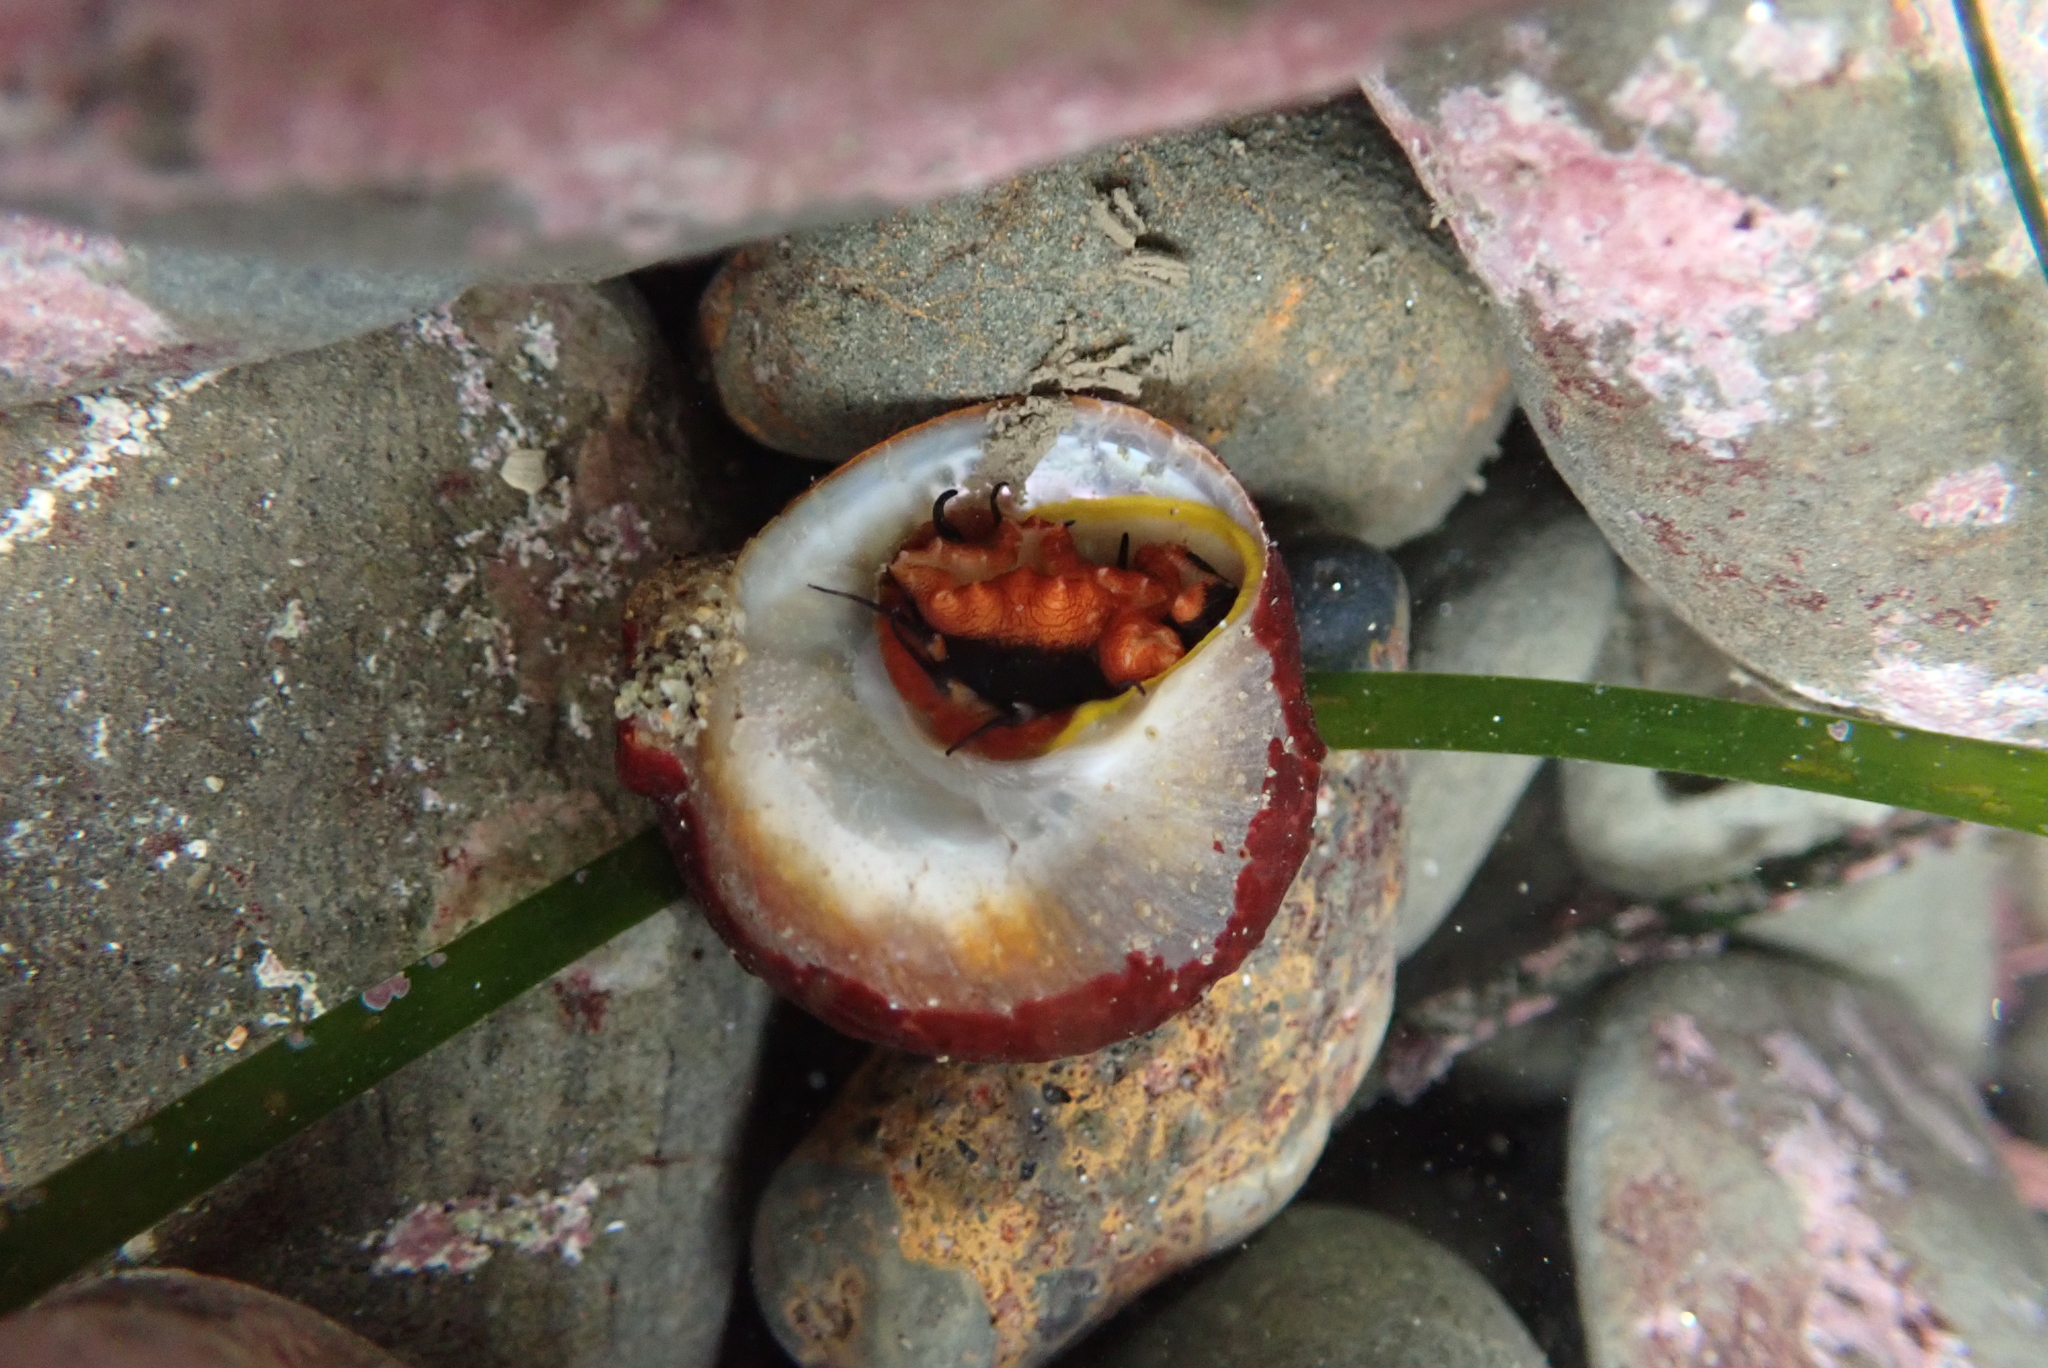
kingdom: Animalia
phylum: Mollusca
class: Gastropoda
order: Trochida
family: Tegulidae
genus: Tegula
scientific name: Tegula brunnea
